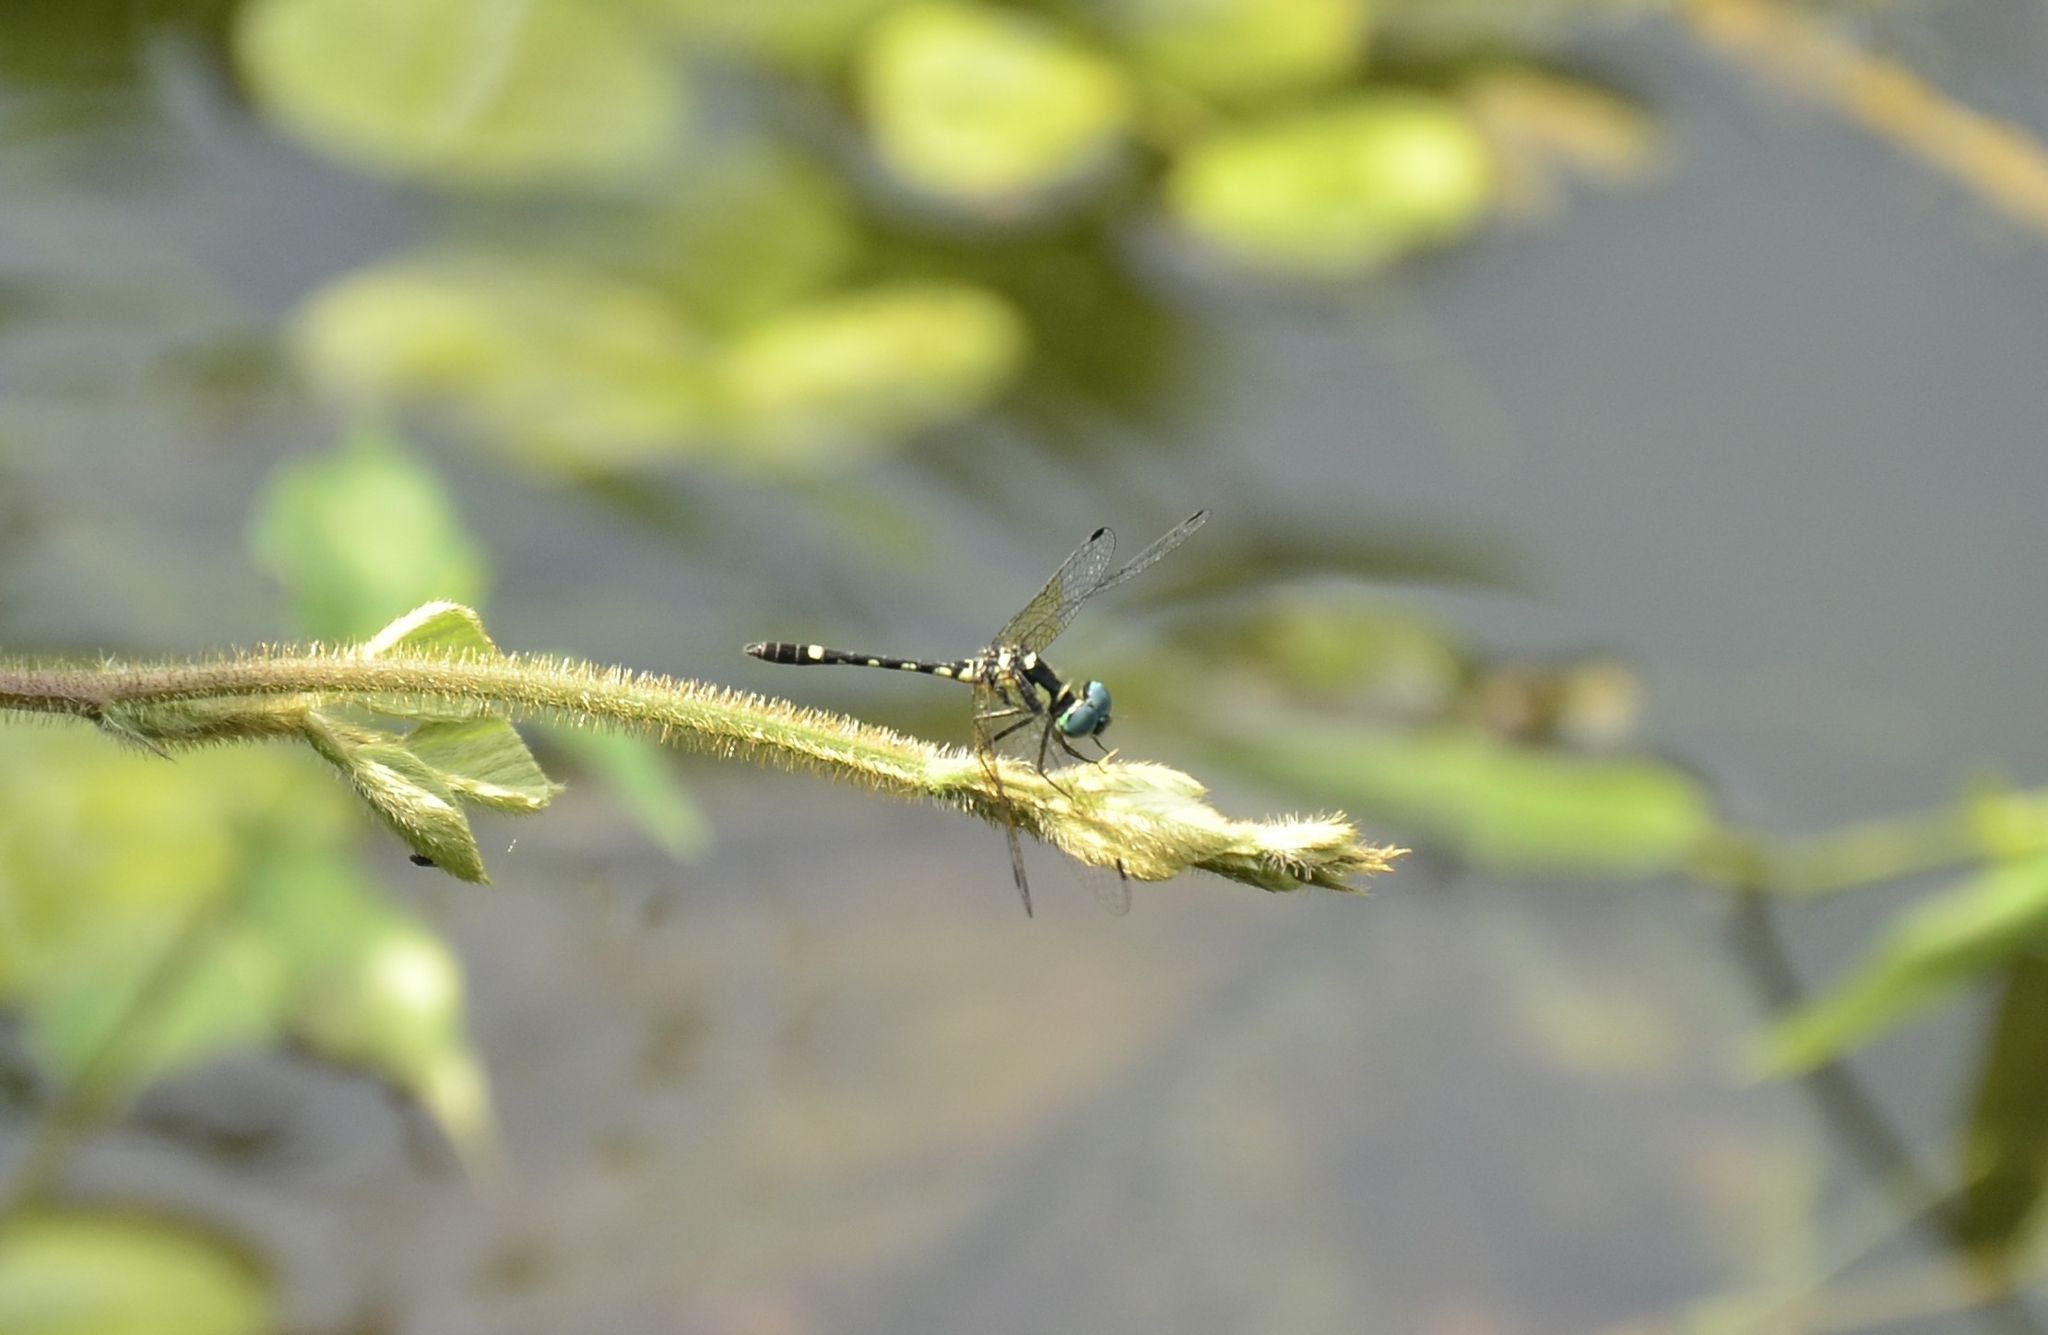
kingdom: Animalia
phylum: Arthropoda
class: Insecta
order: Odonata
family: Libellulidae
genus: Tetrathemis
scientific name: Tetrathemis platyptera
